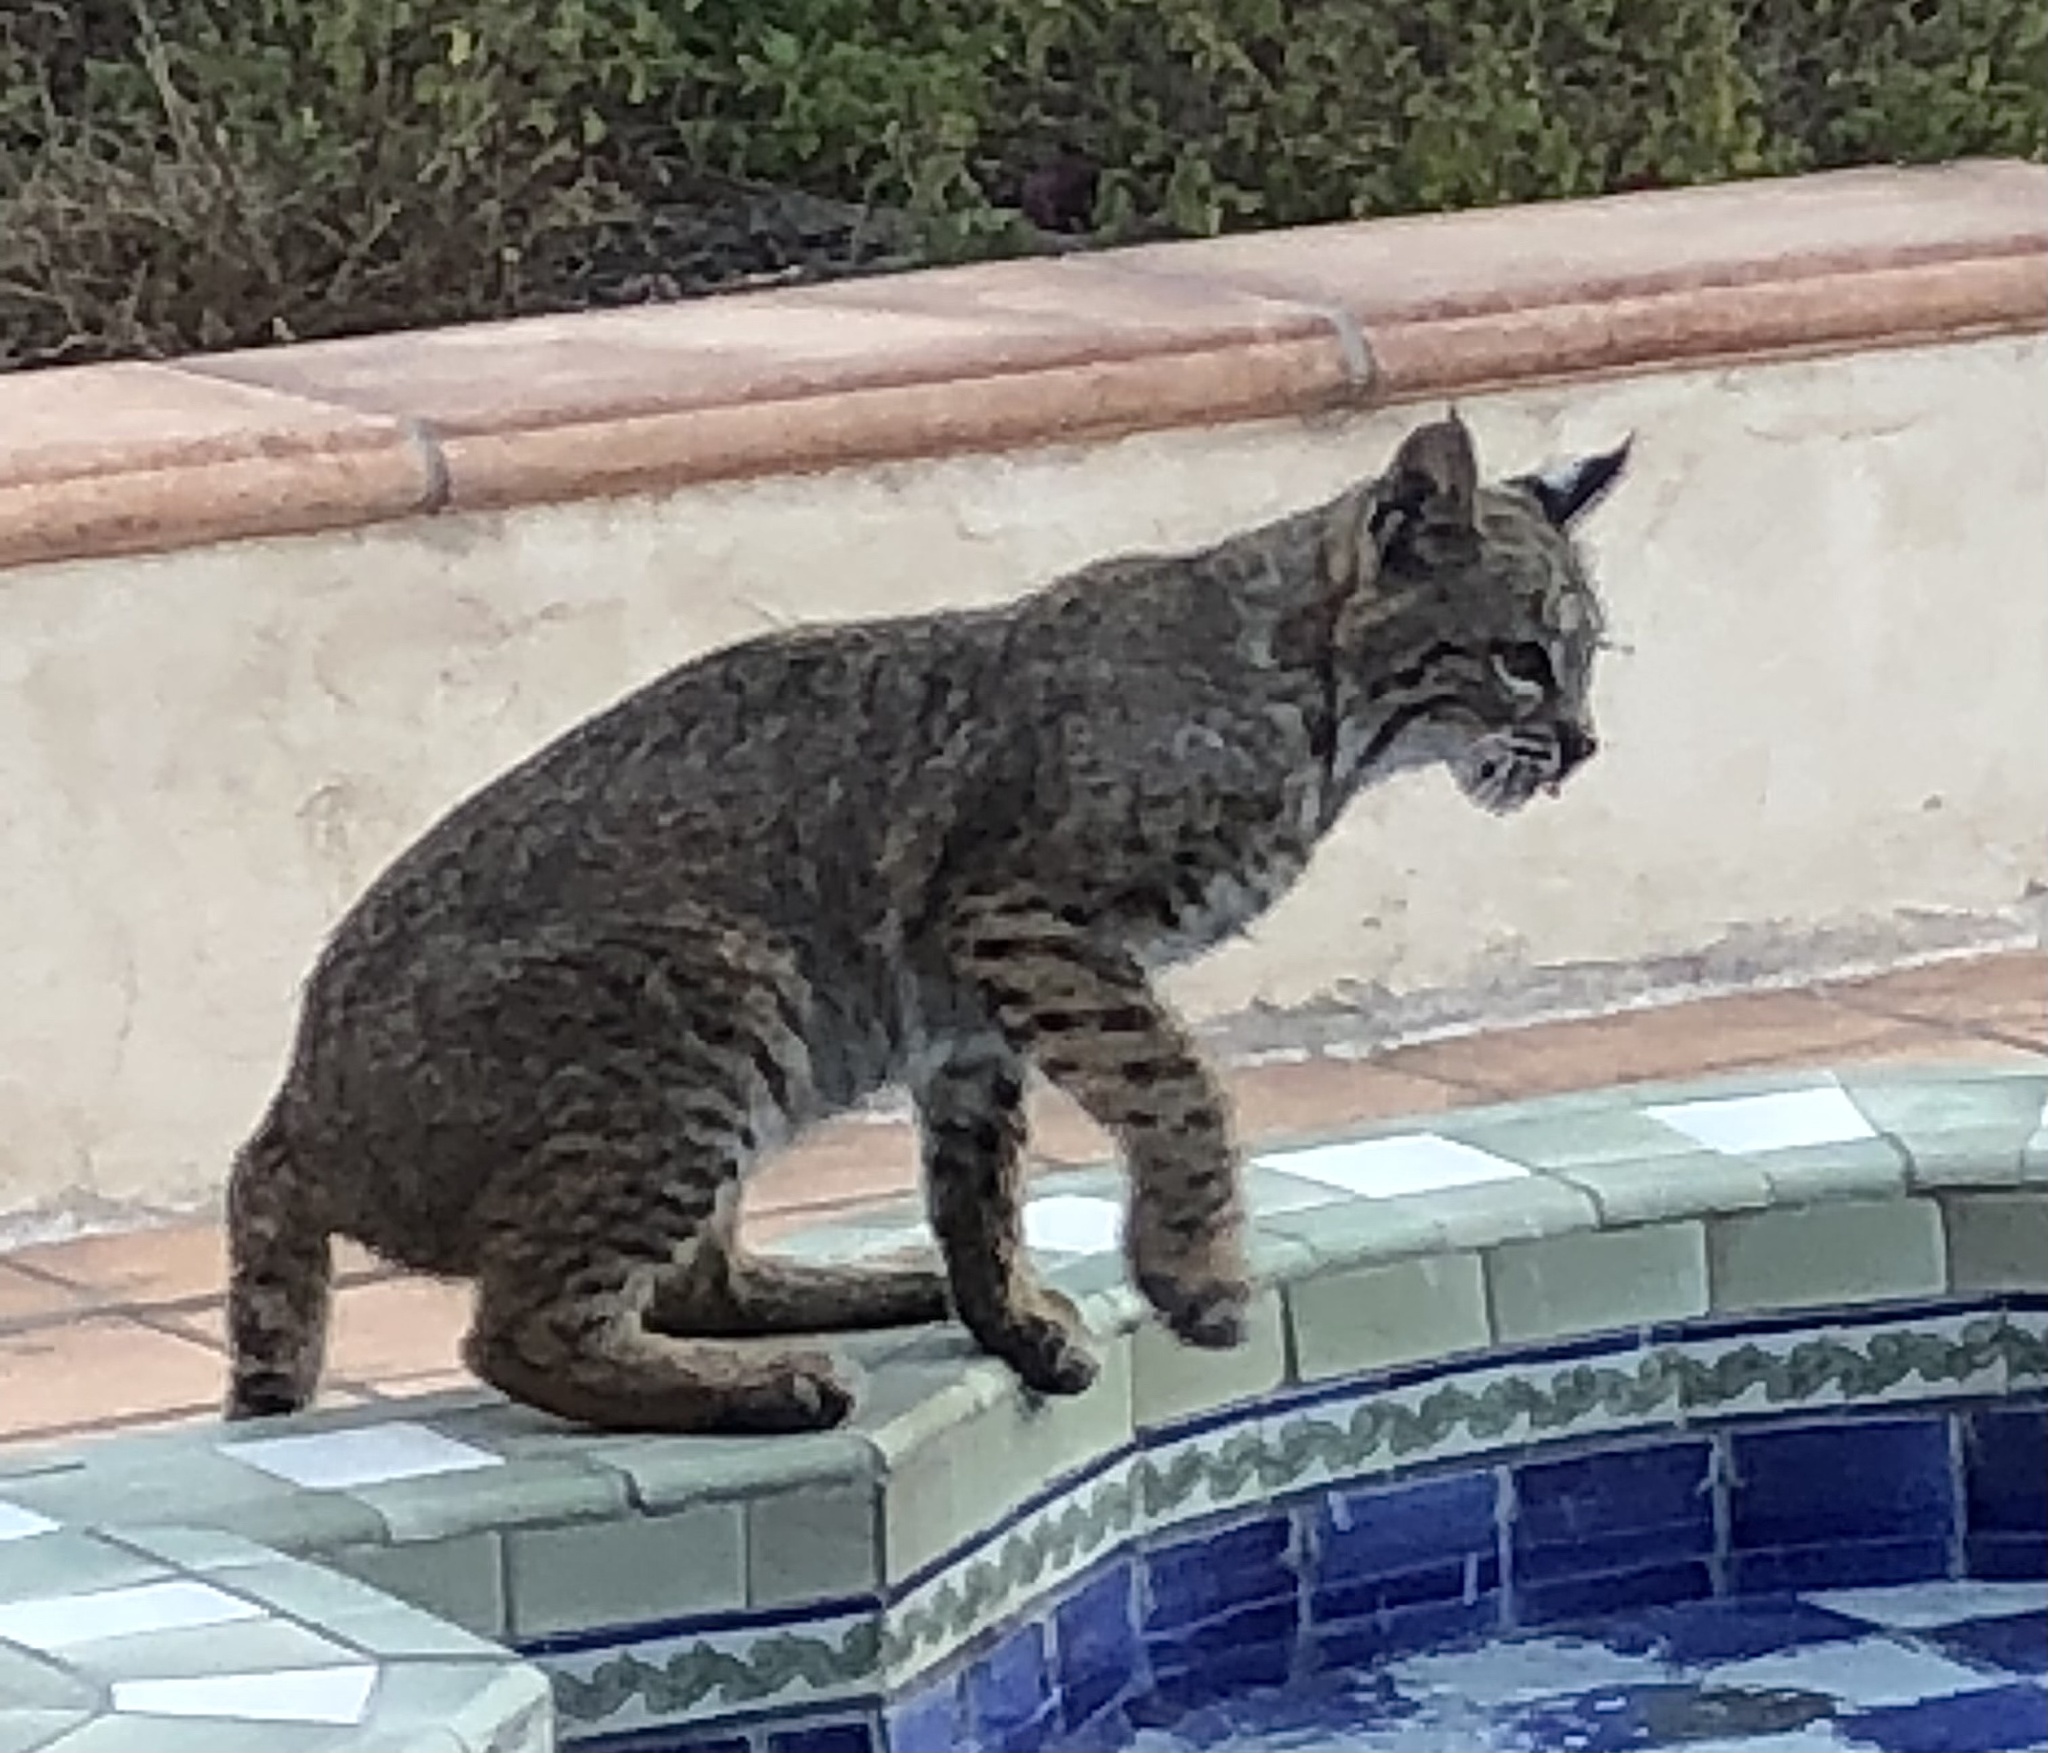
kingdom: Animalia
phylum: Chordata
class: Mammalia
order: Carnivora
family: Felidae
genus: Lynx
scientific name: Lynx rufus
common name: Bobcat
